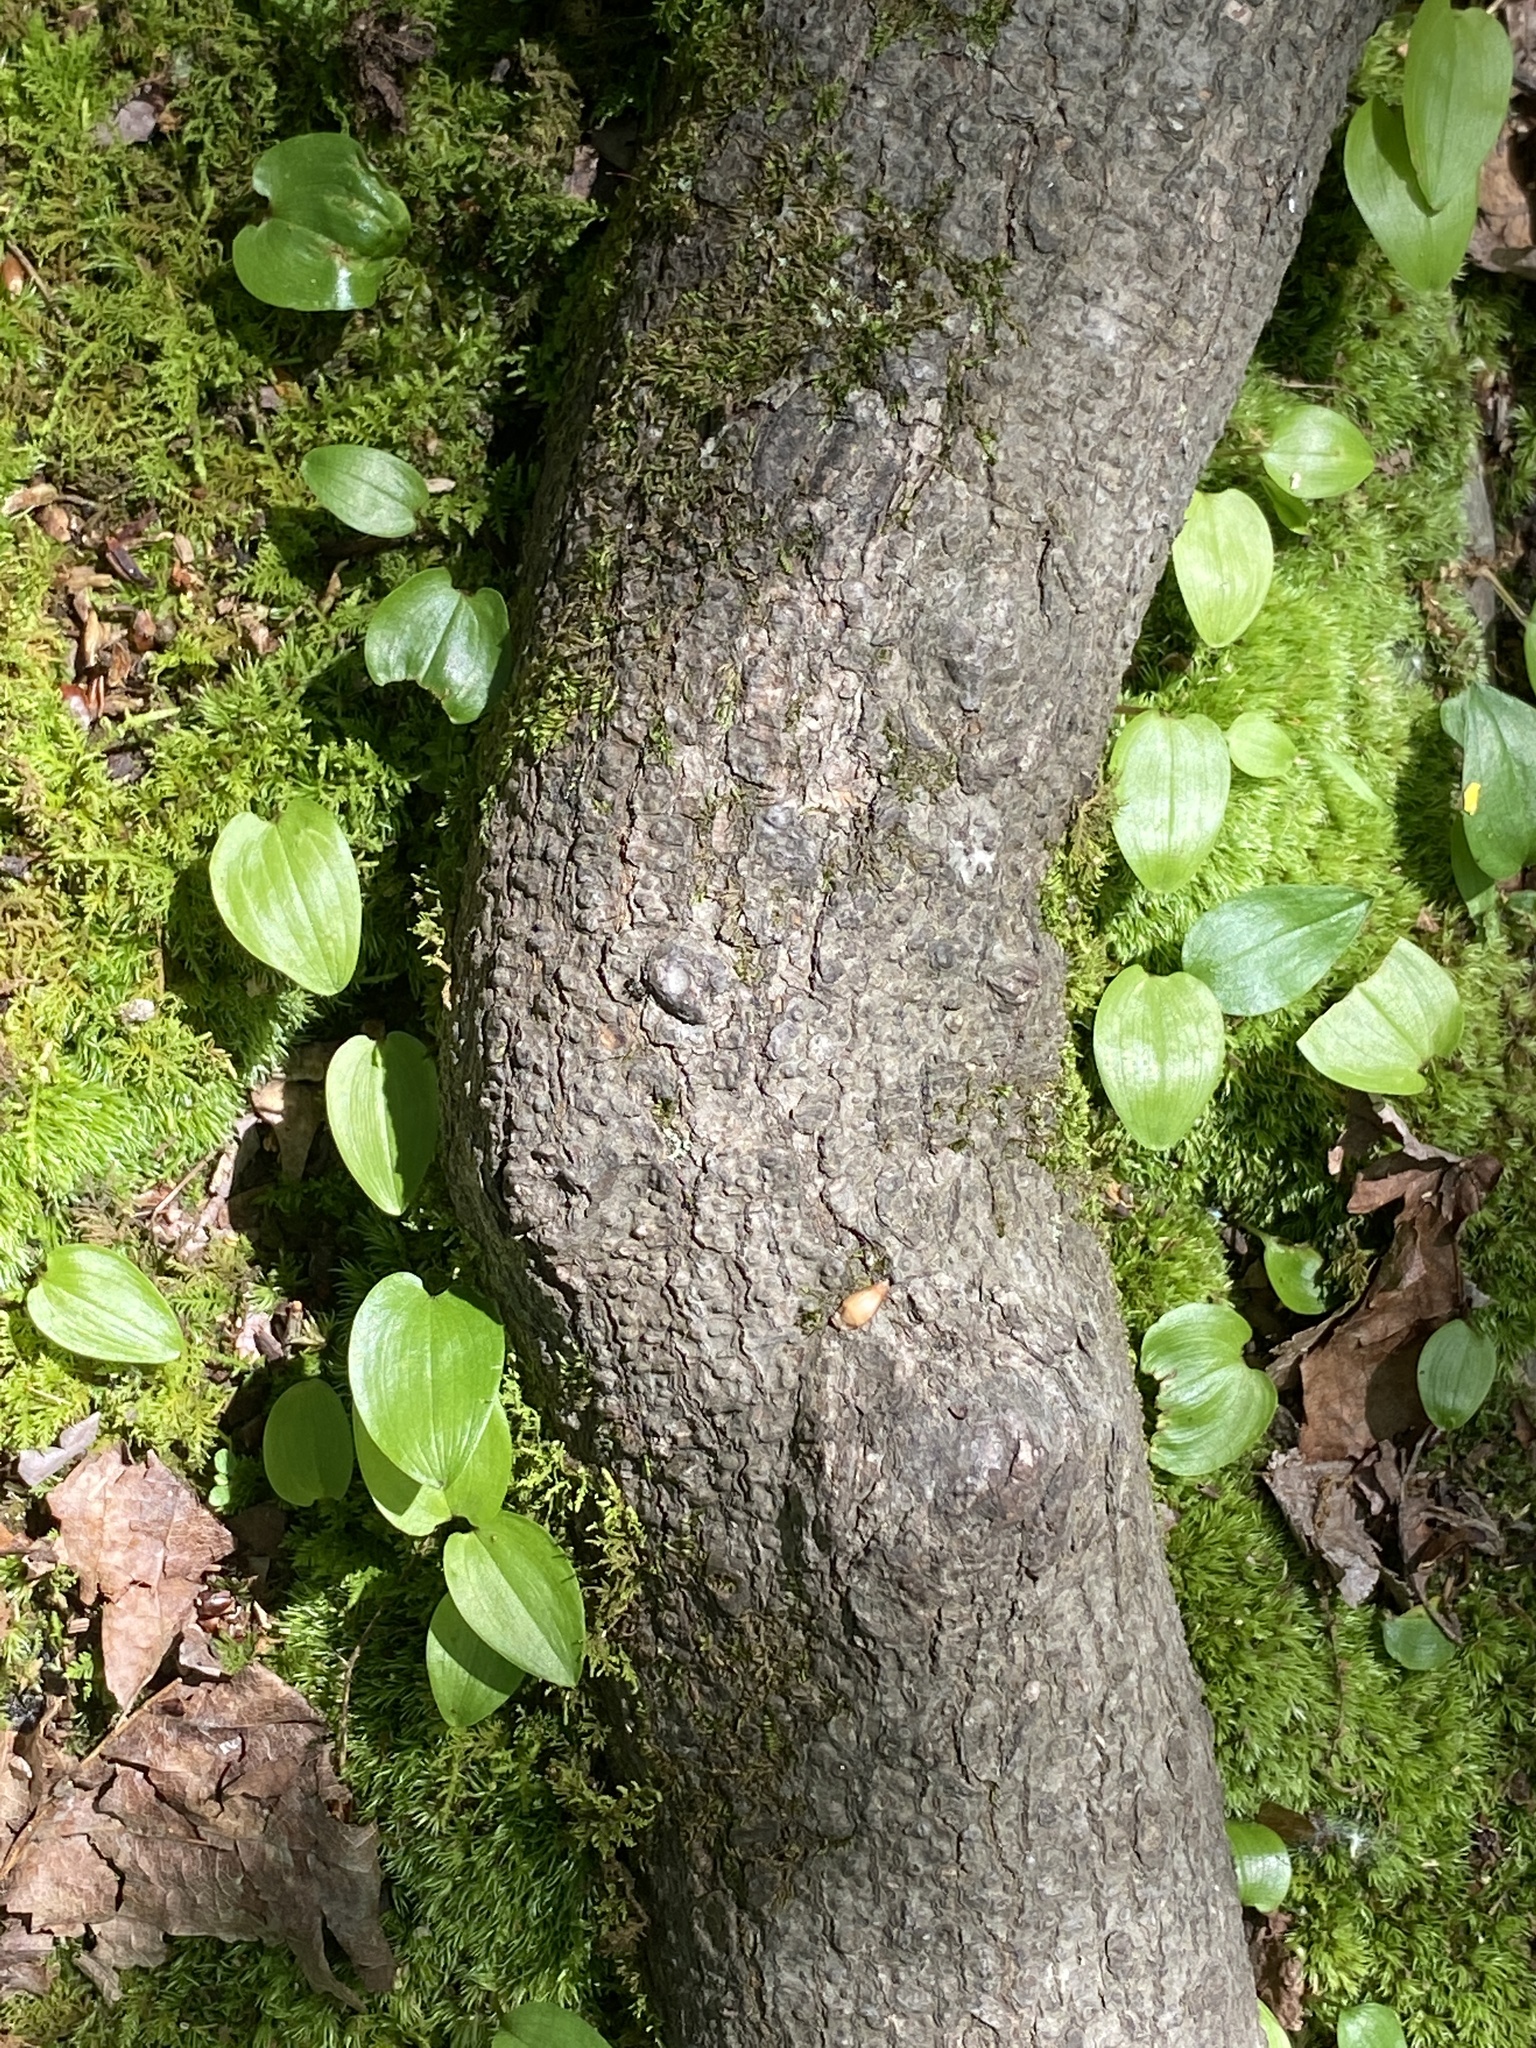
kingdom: Plantae
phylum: Tracheophyta
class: Liliopsida
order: Asparagales
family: Asparagaceae
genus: Maianthemum
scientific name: Maianthemum canadense
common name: False lily-of-the-valley
